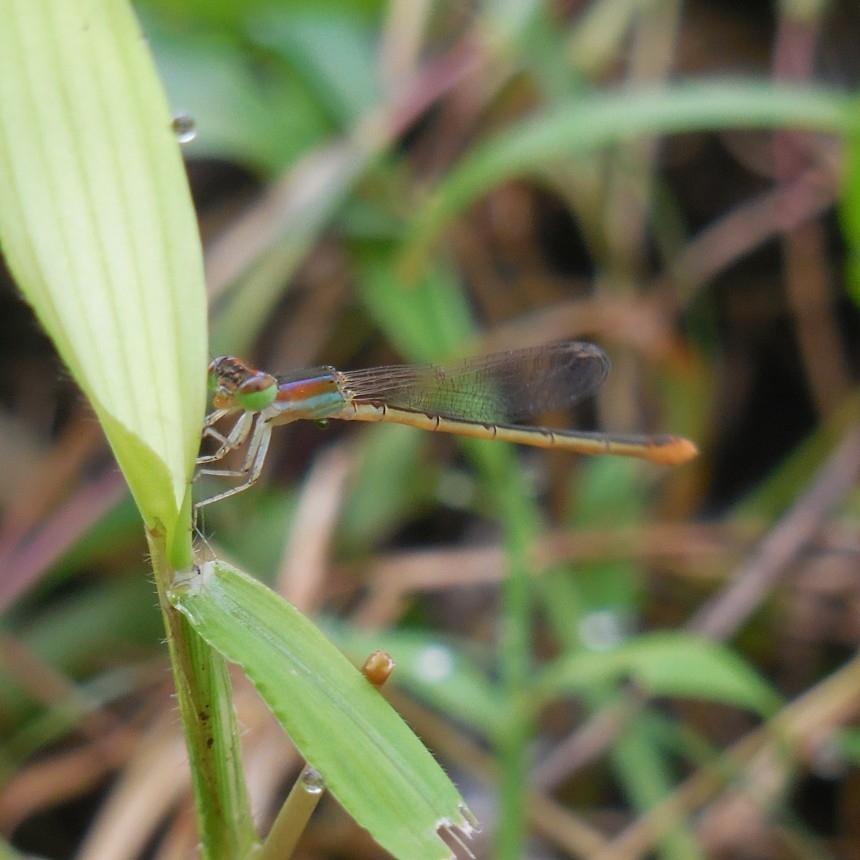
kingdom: Animalia
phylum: Arthropoda
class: Insecta
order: Odonata
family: Coenagrionidae
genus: Agriocnemis
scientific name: Agriocnemis pygmaea
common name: Pygmy wisp
